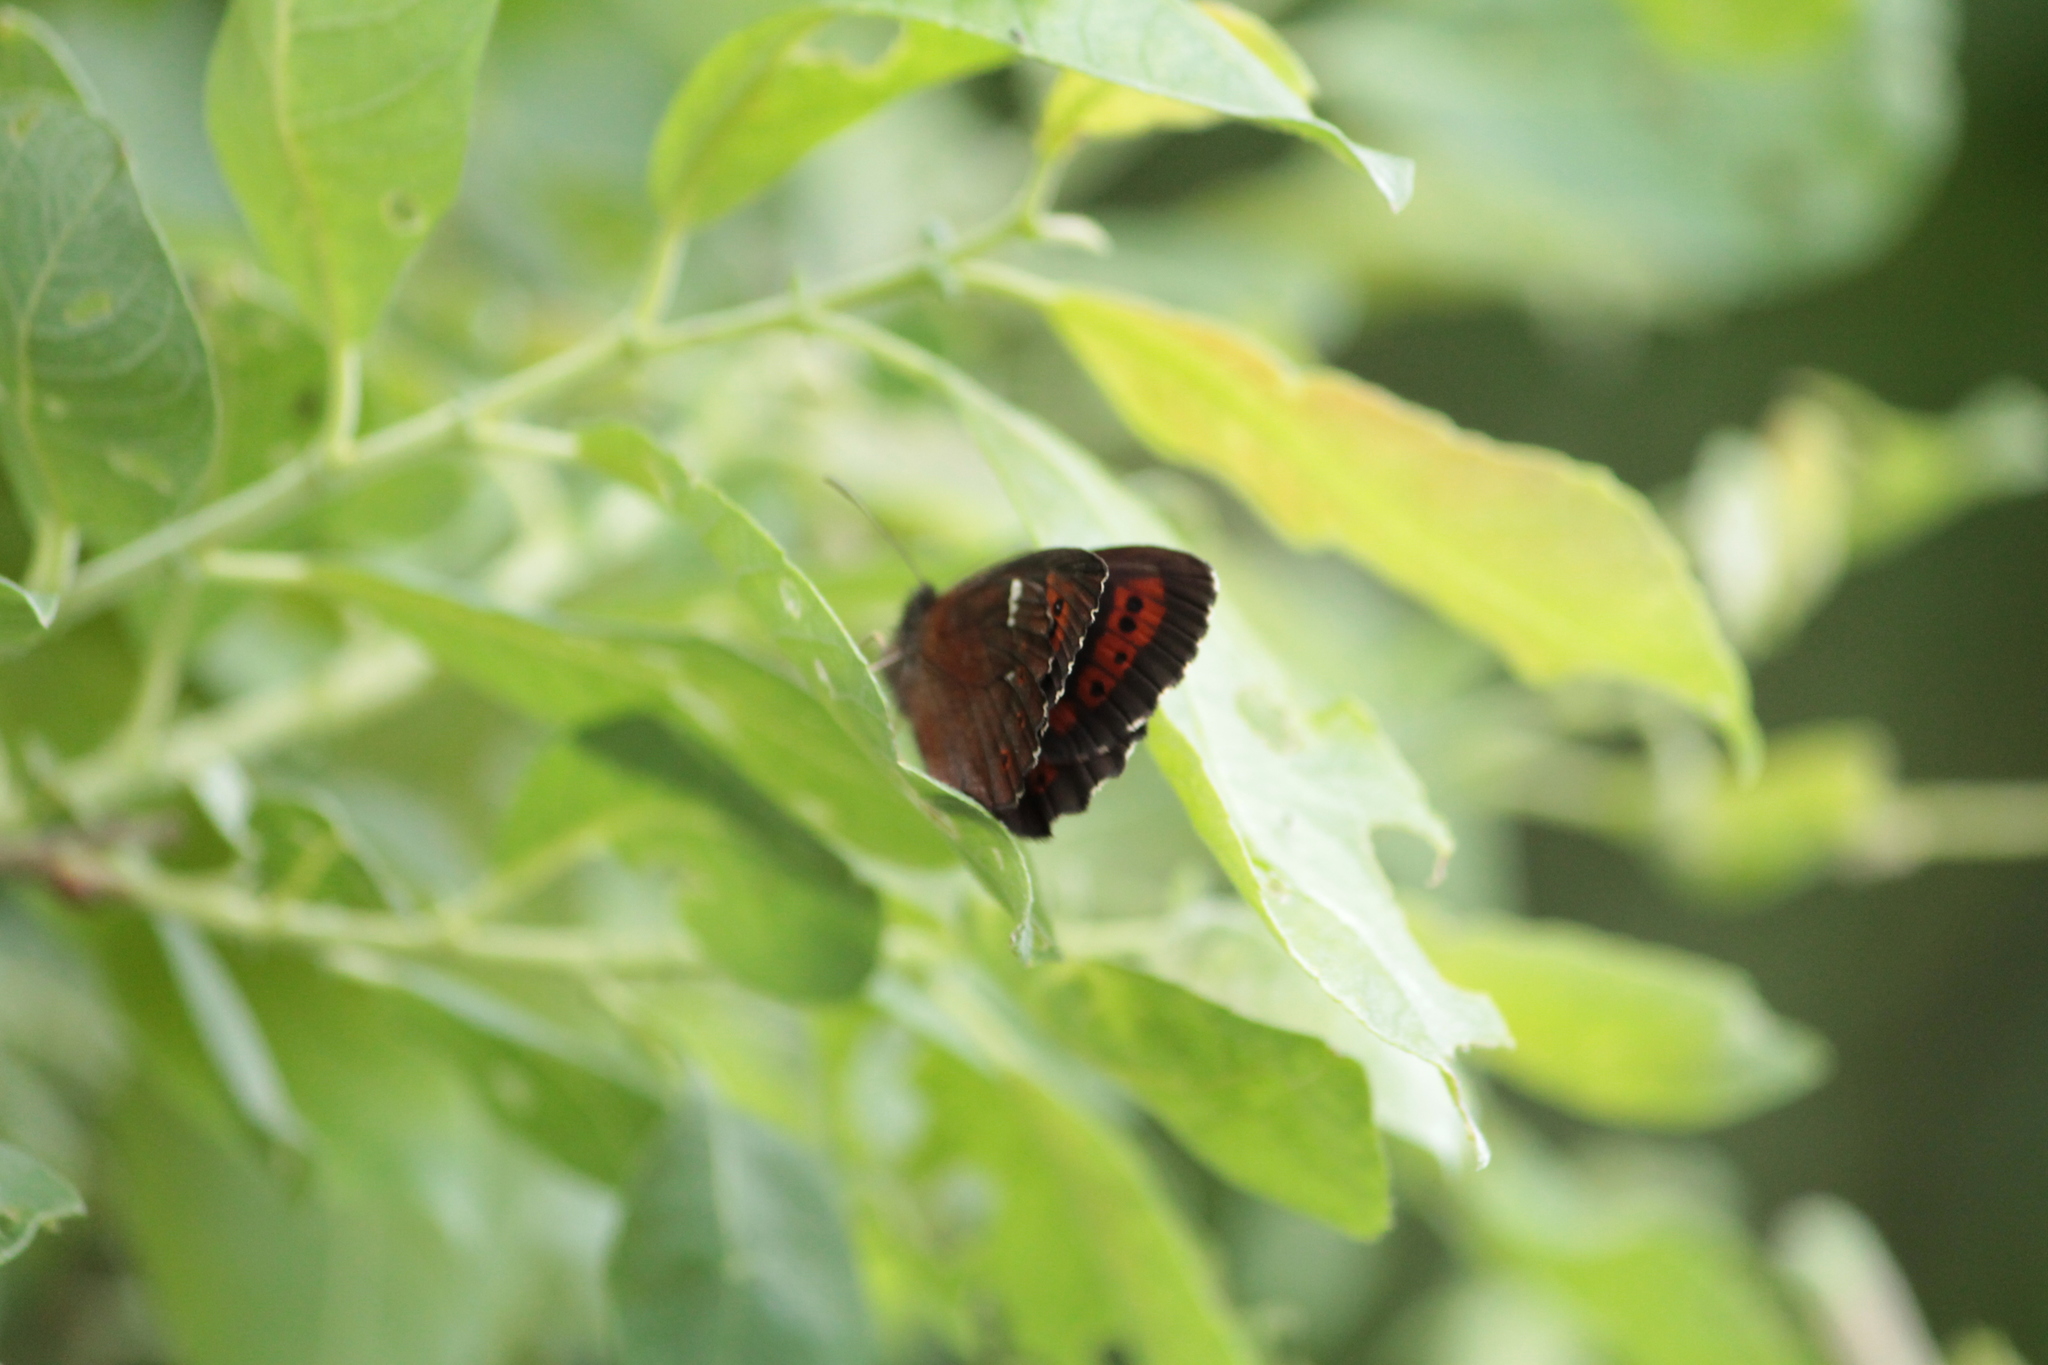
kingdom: Animalia
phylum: Arthropoda
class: Insecta
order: Lepidoptera
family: Nymphalidae
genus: Erebia
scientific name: Erebia ligea
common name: Arran brown
